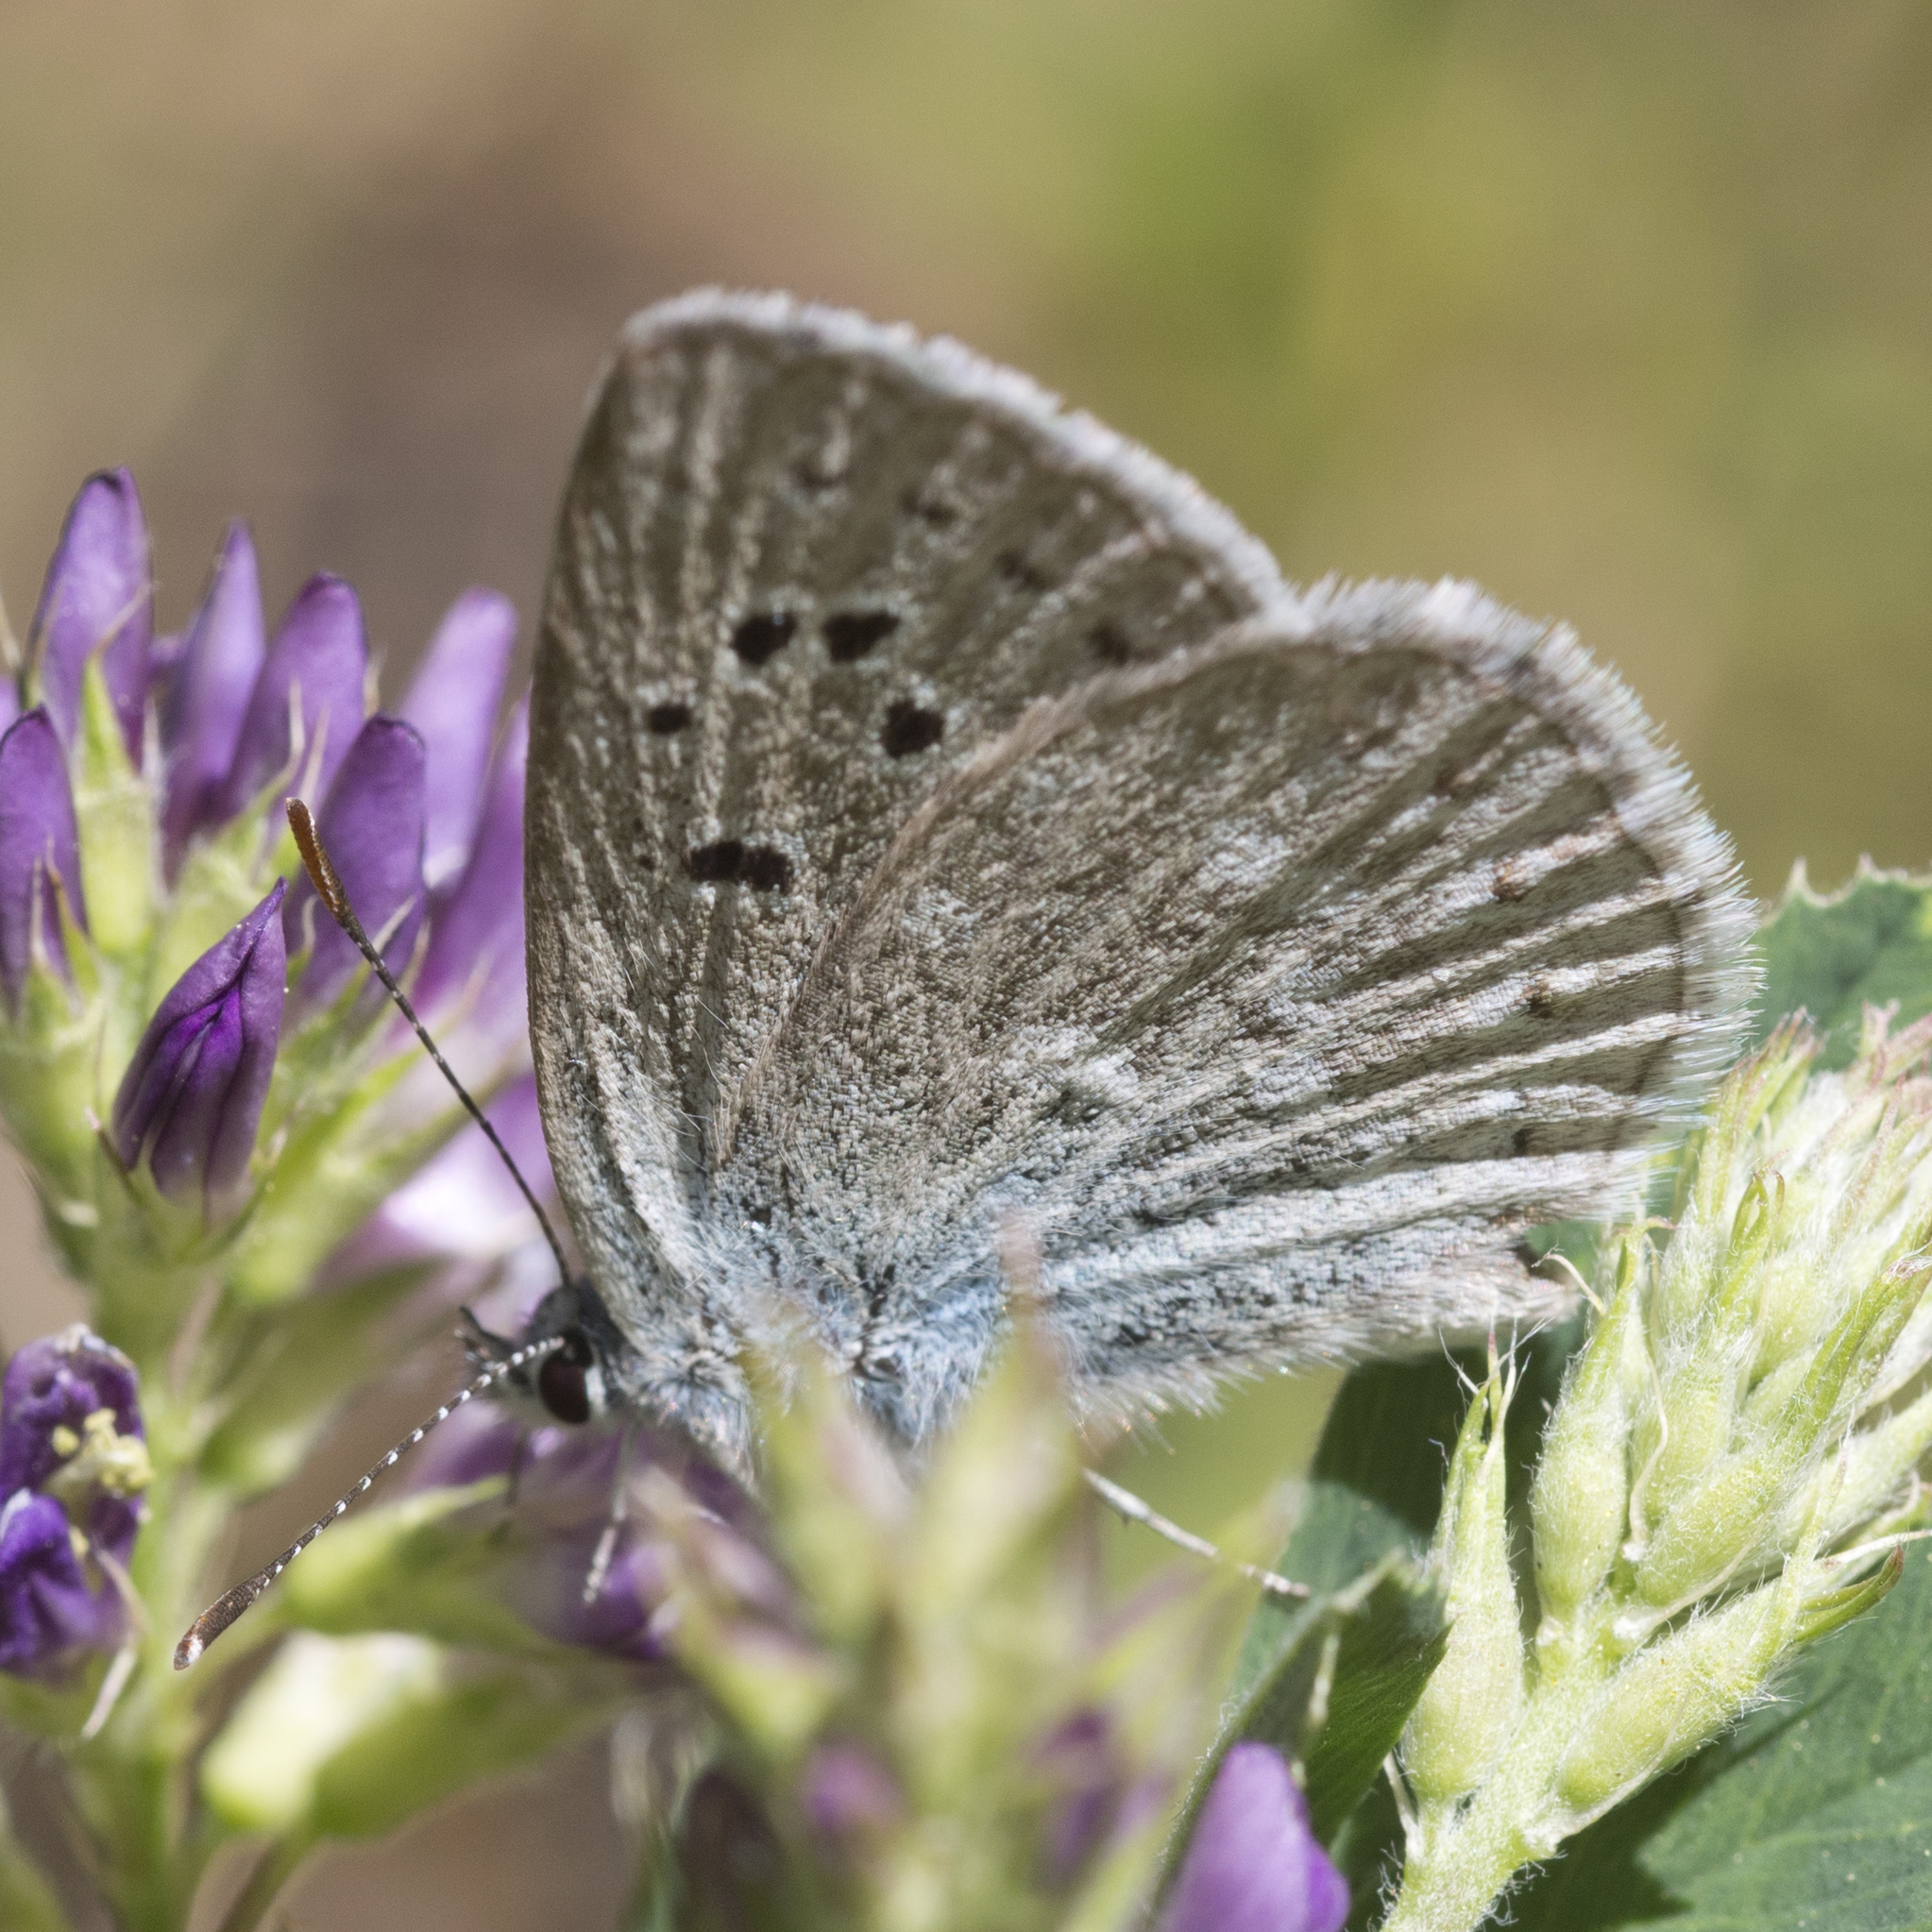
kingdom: Animalia
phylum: Arthropoda
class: Insecta
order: Lepidoptera
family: Lycaenidae
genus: Icaricia
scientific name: Icaricia icarioides
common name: Boisduval's blue
